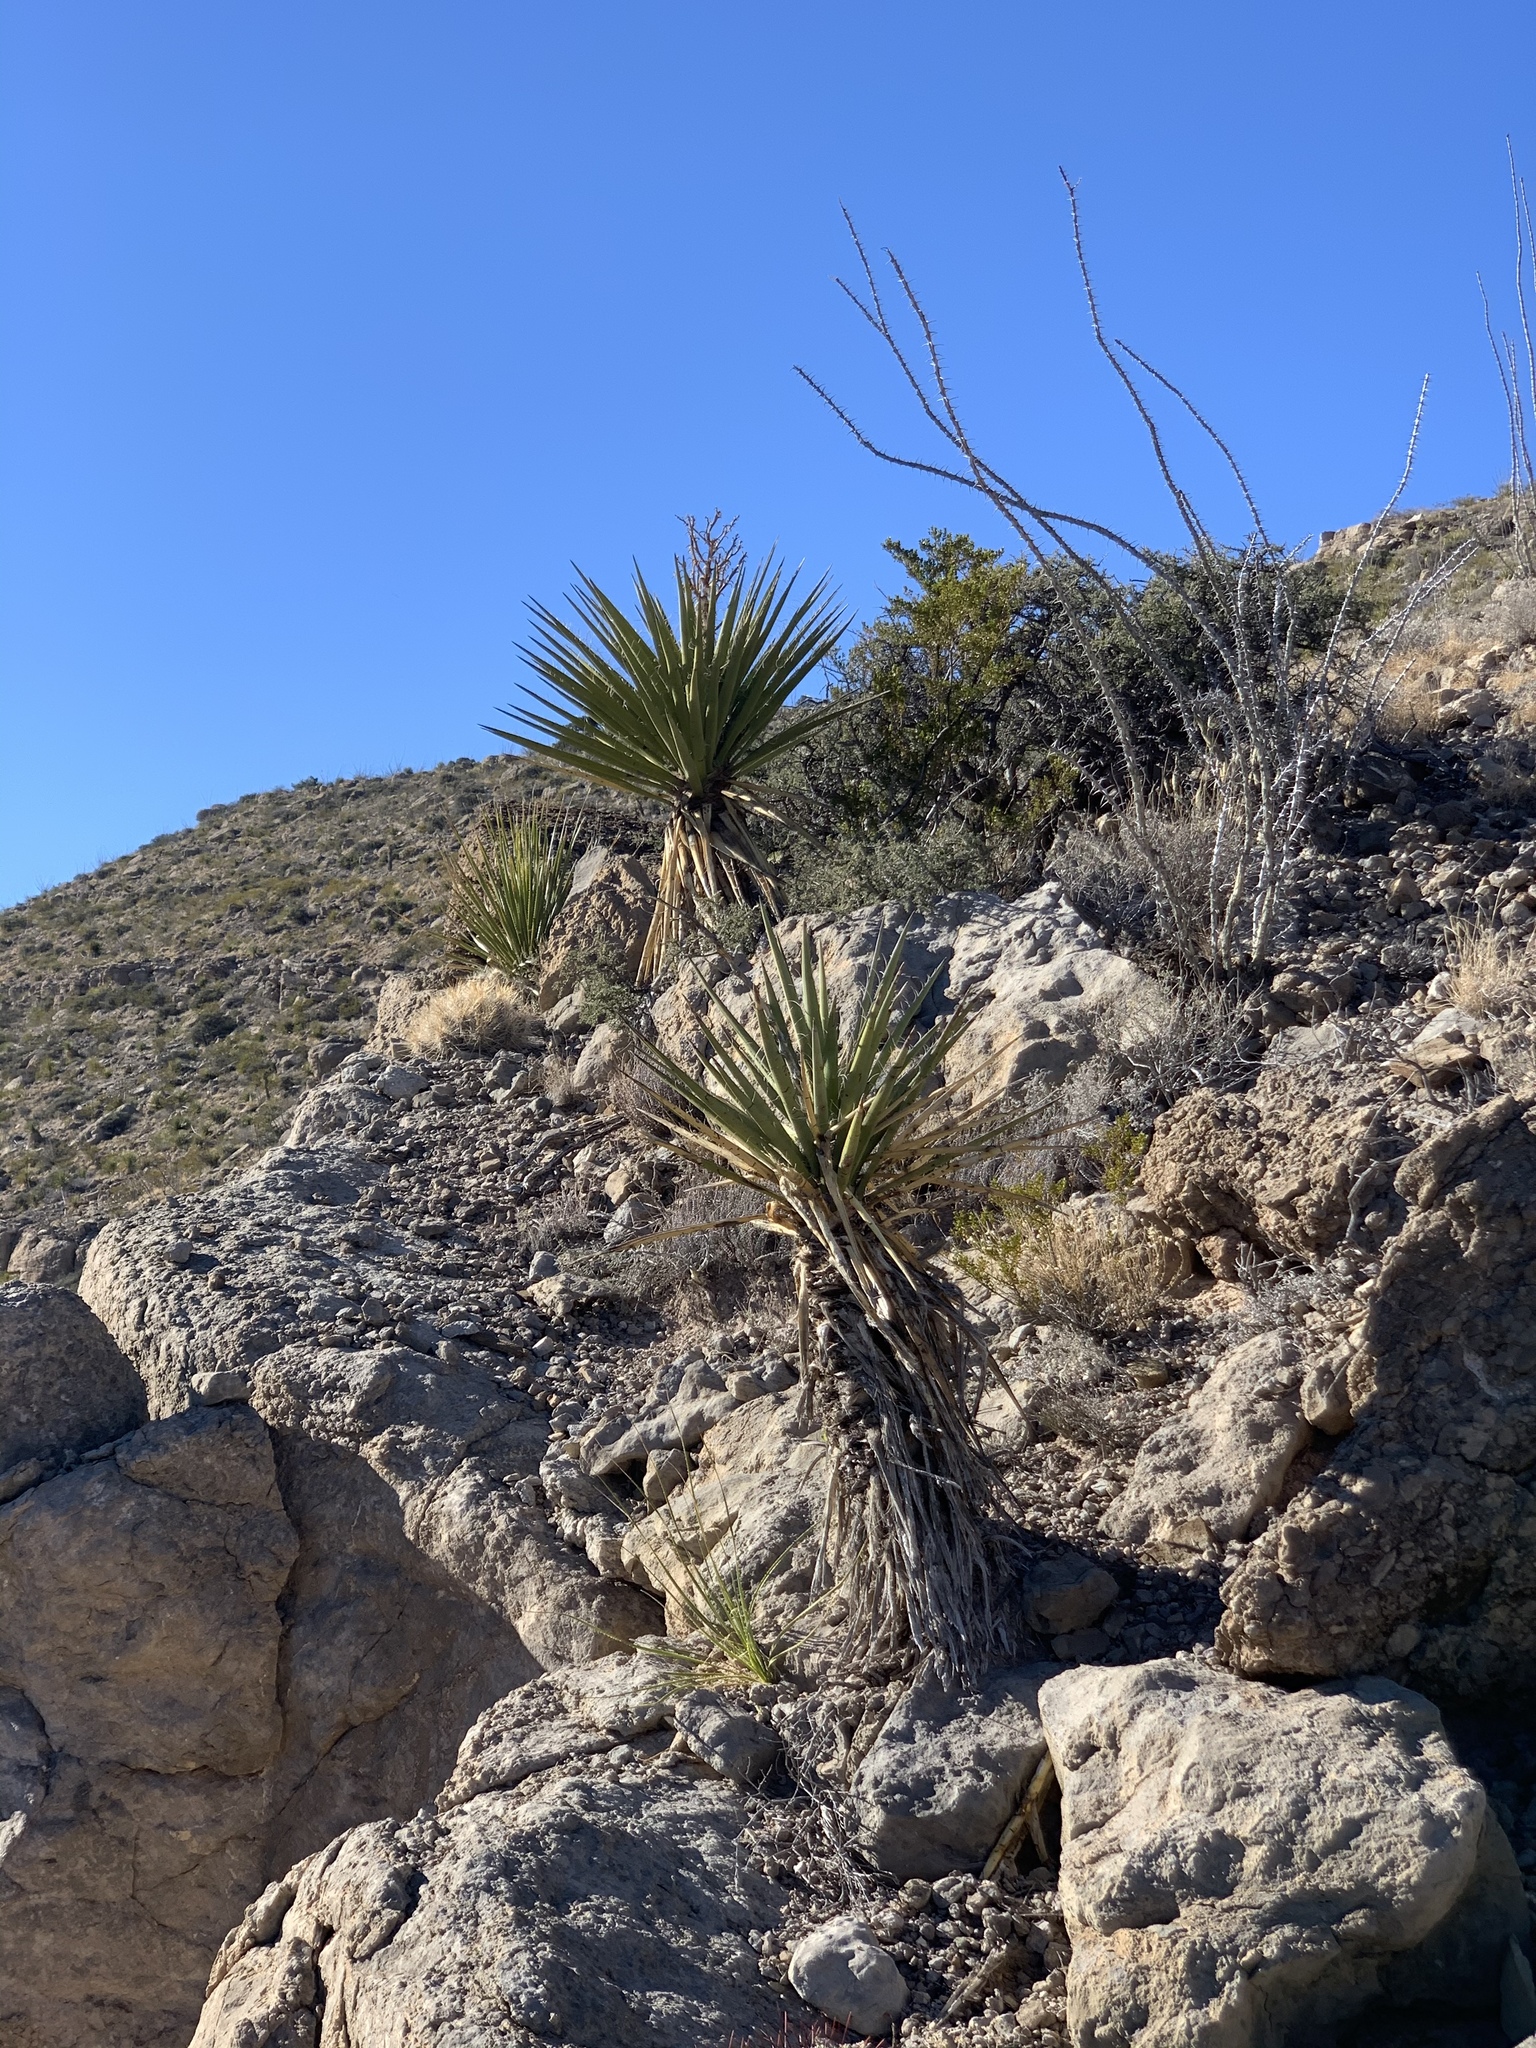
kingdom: Plantae
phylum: Tracheophyta
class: Liliopsida
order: Asparagales
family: Asparagaceae
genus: Yucca
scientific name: Yucca treculiana
